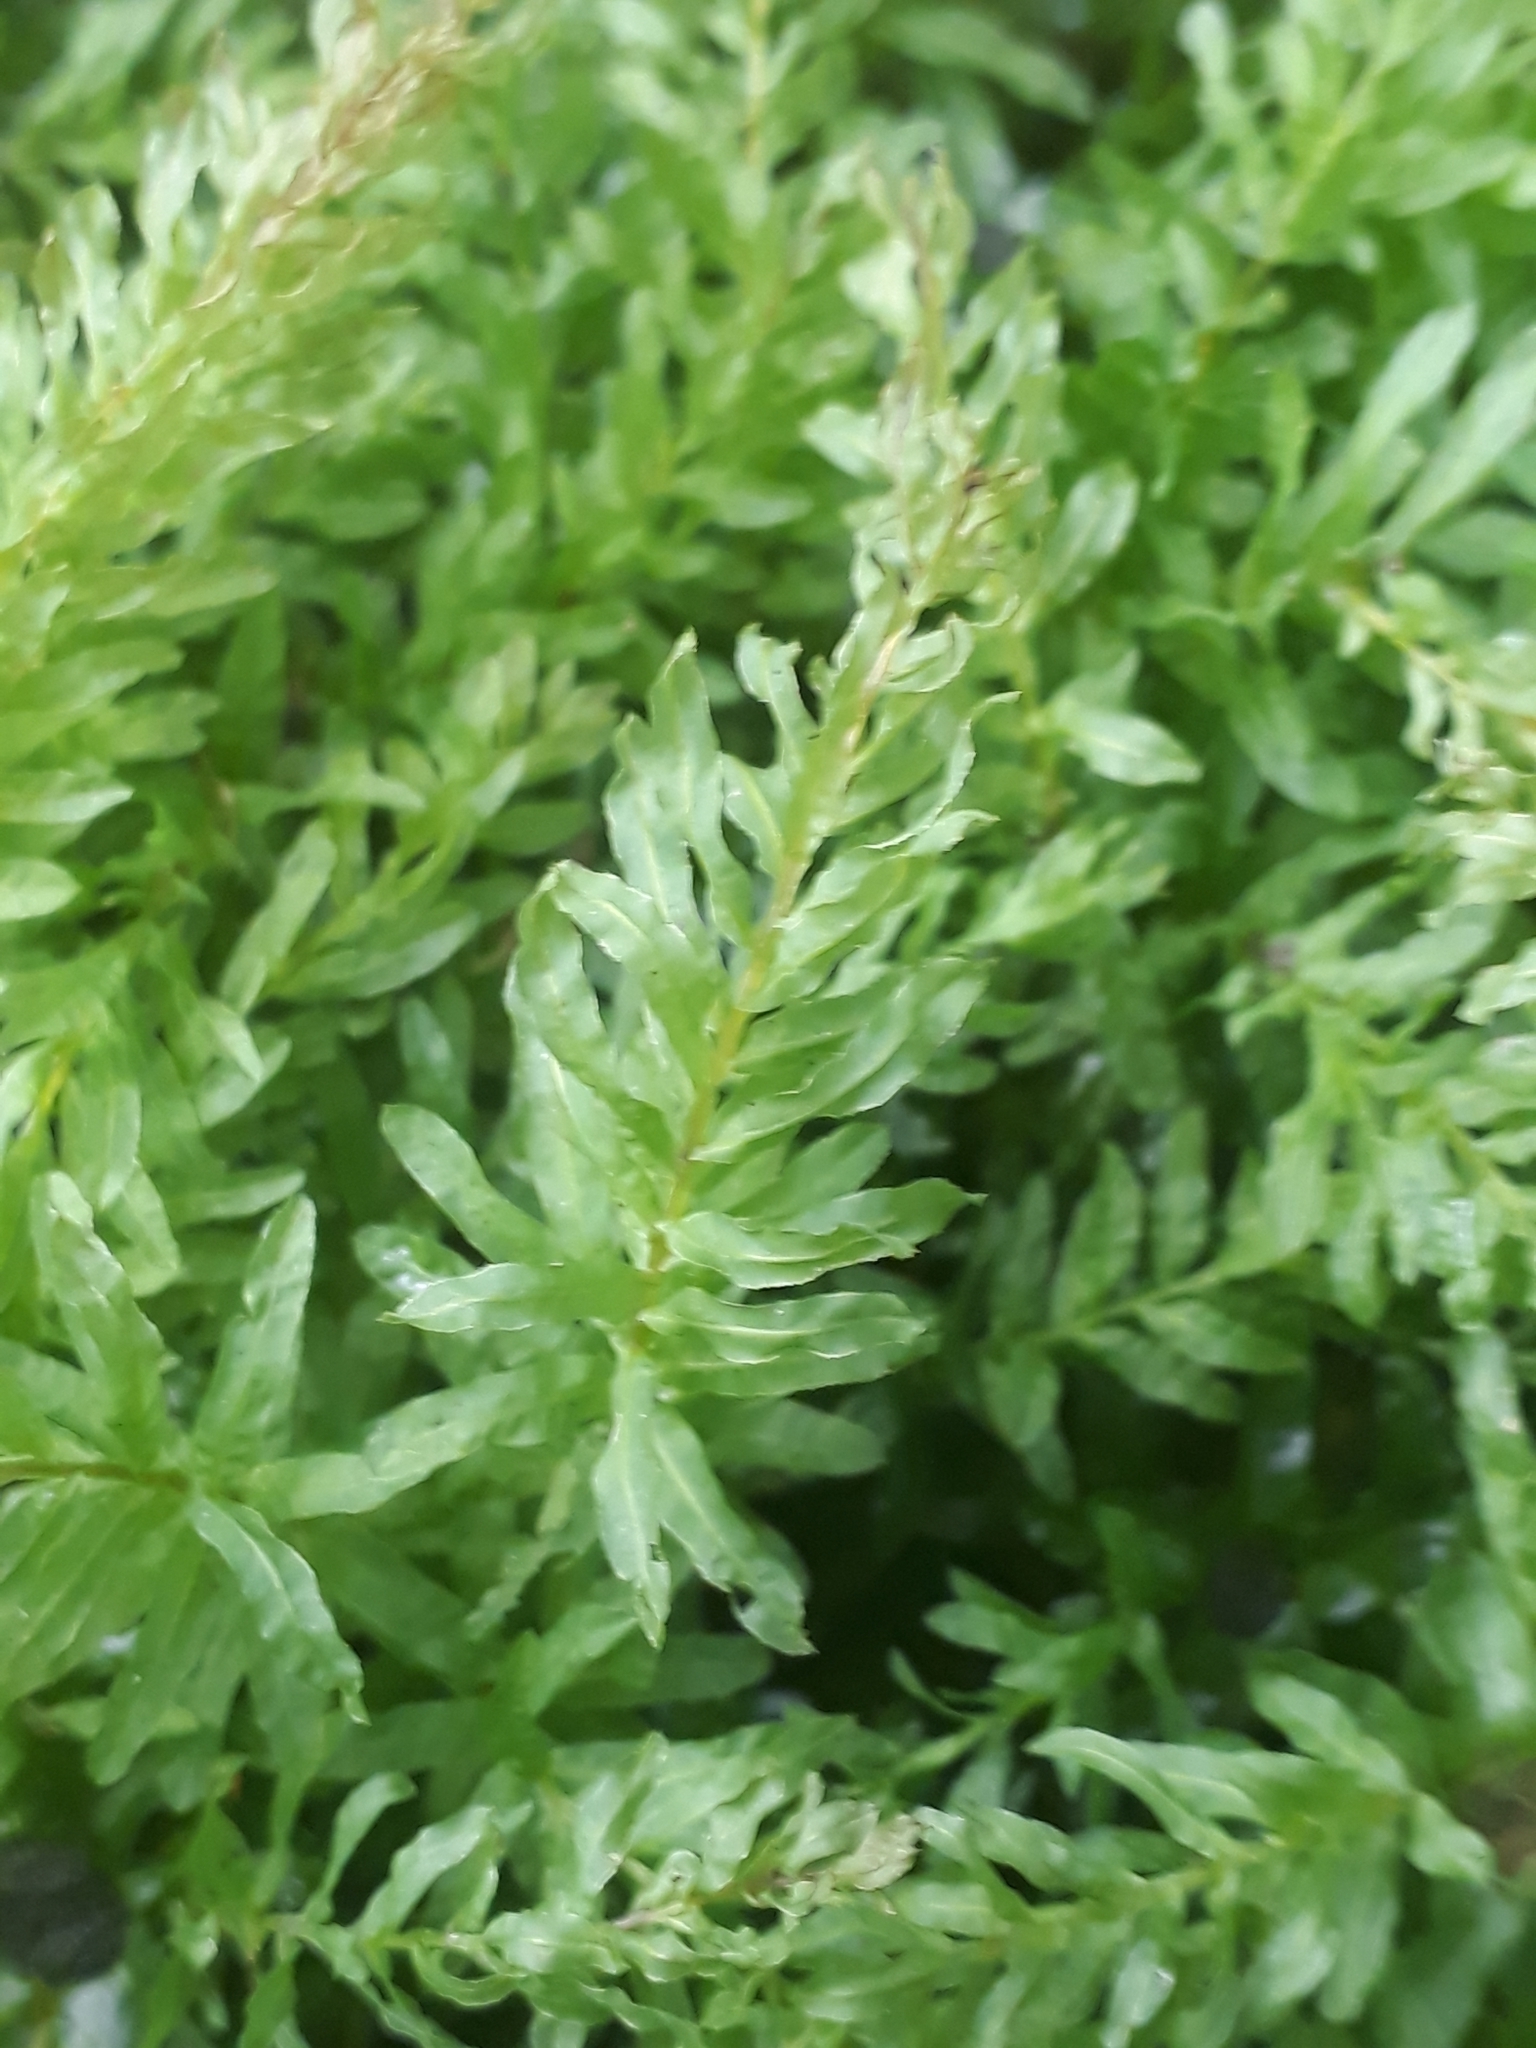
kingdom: Plantae
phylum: Bryophyta
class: Bryopsida
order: Bryales
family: Mniaceae
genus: Plagiomnium
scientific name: Plagiomnium undulatum
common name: Hart's-tongue thyme-moss
